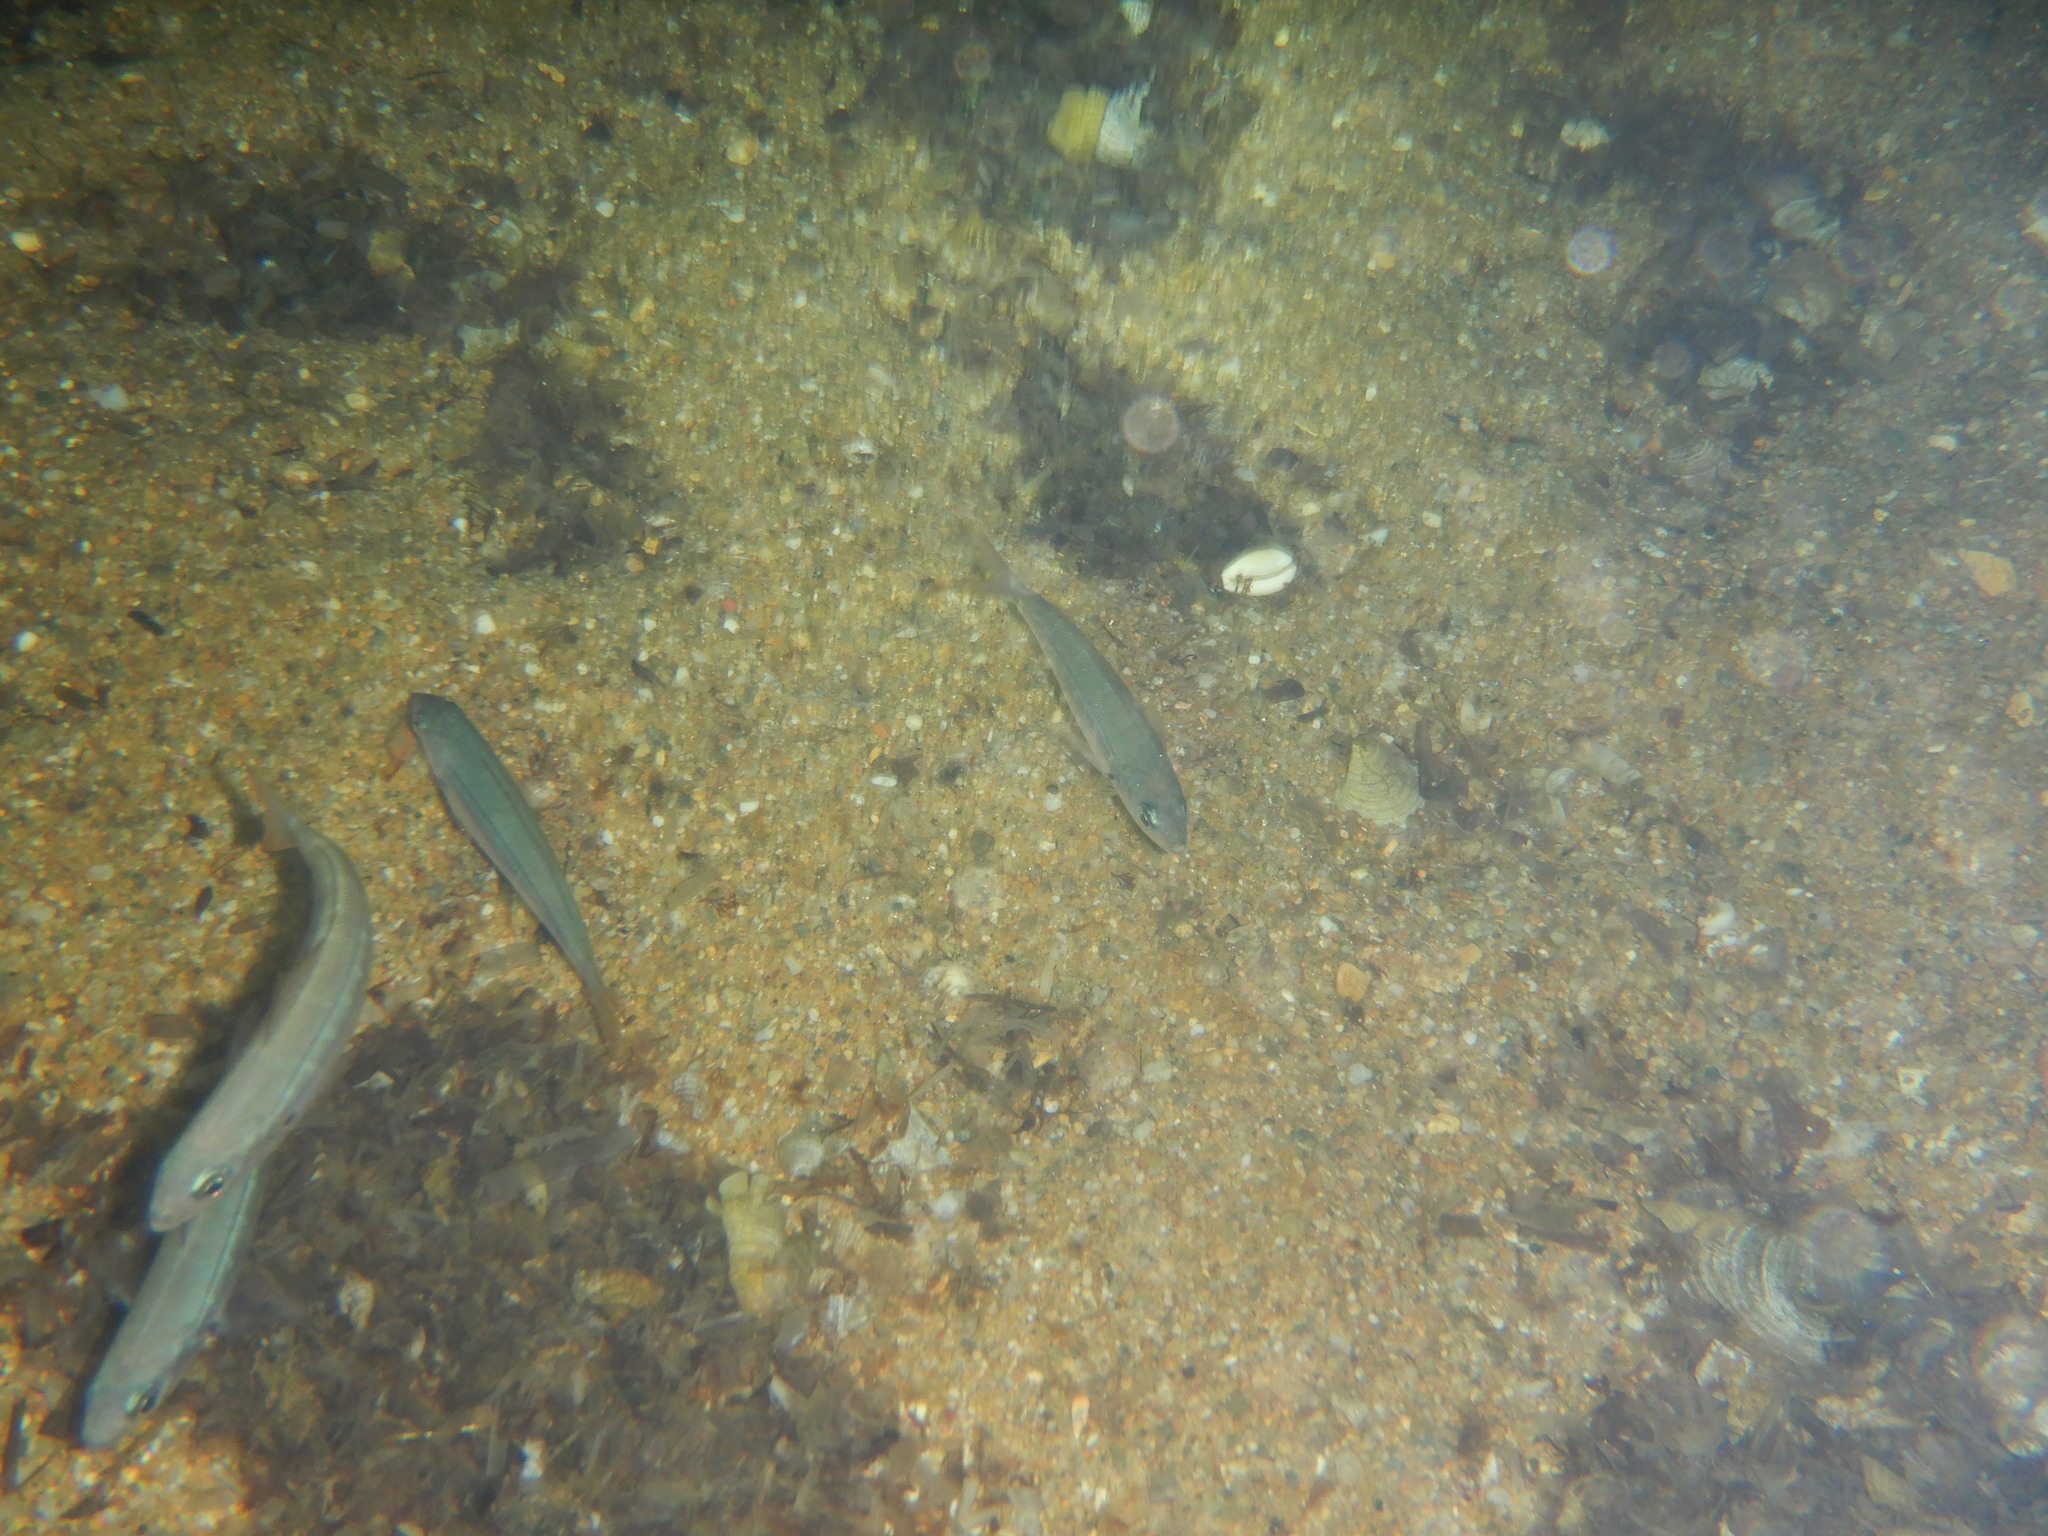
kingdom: Animalia
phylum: Chordata
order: Perciformes
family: Sparidae
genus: Boops
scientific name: Boops boops
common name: Bogue
